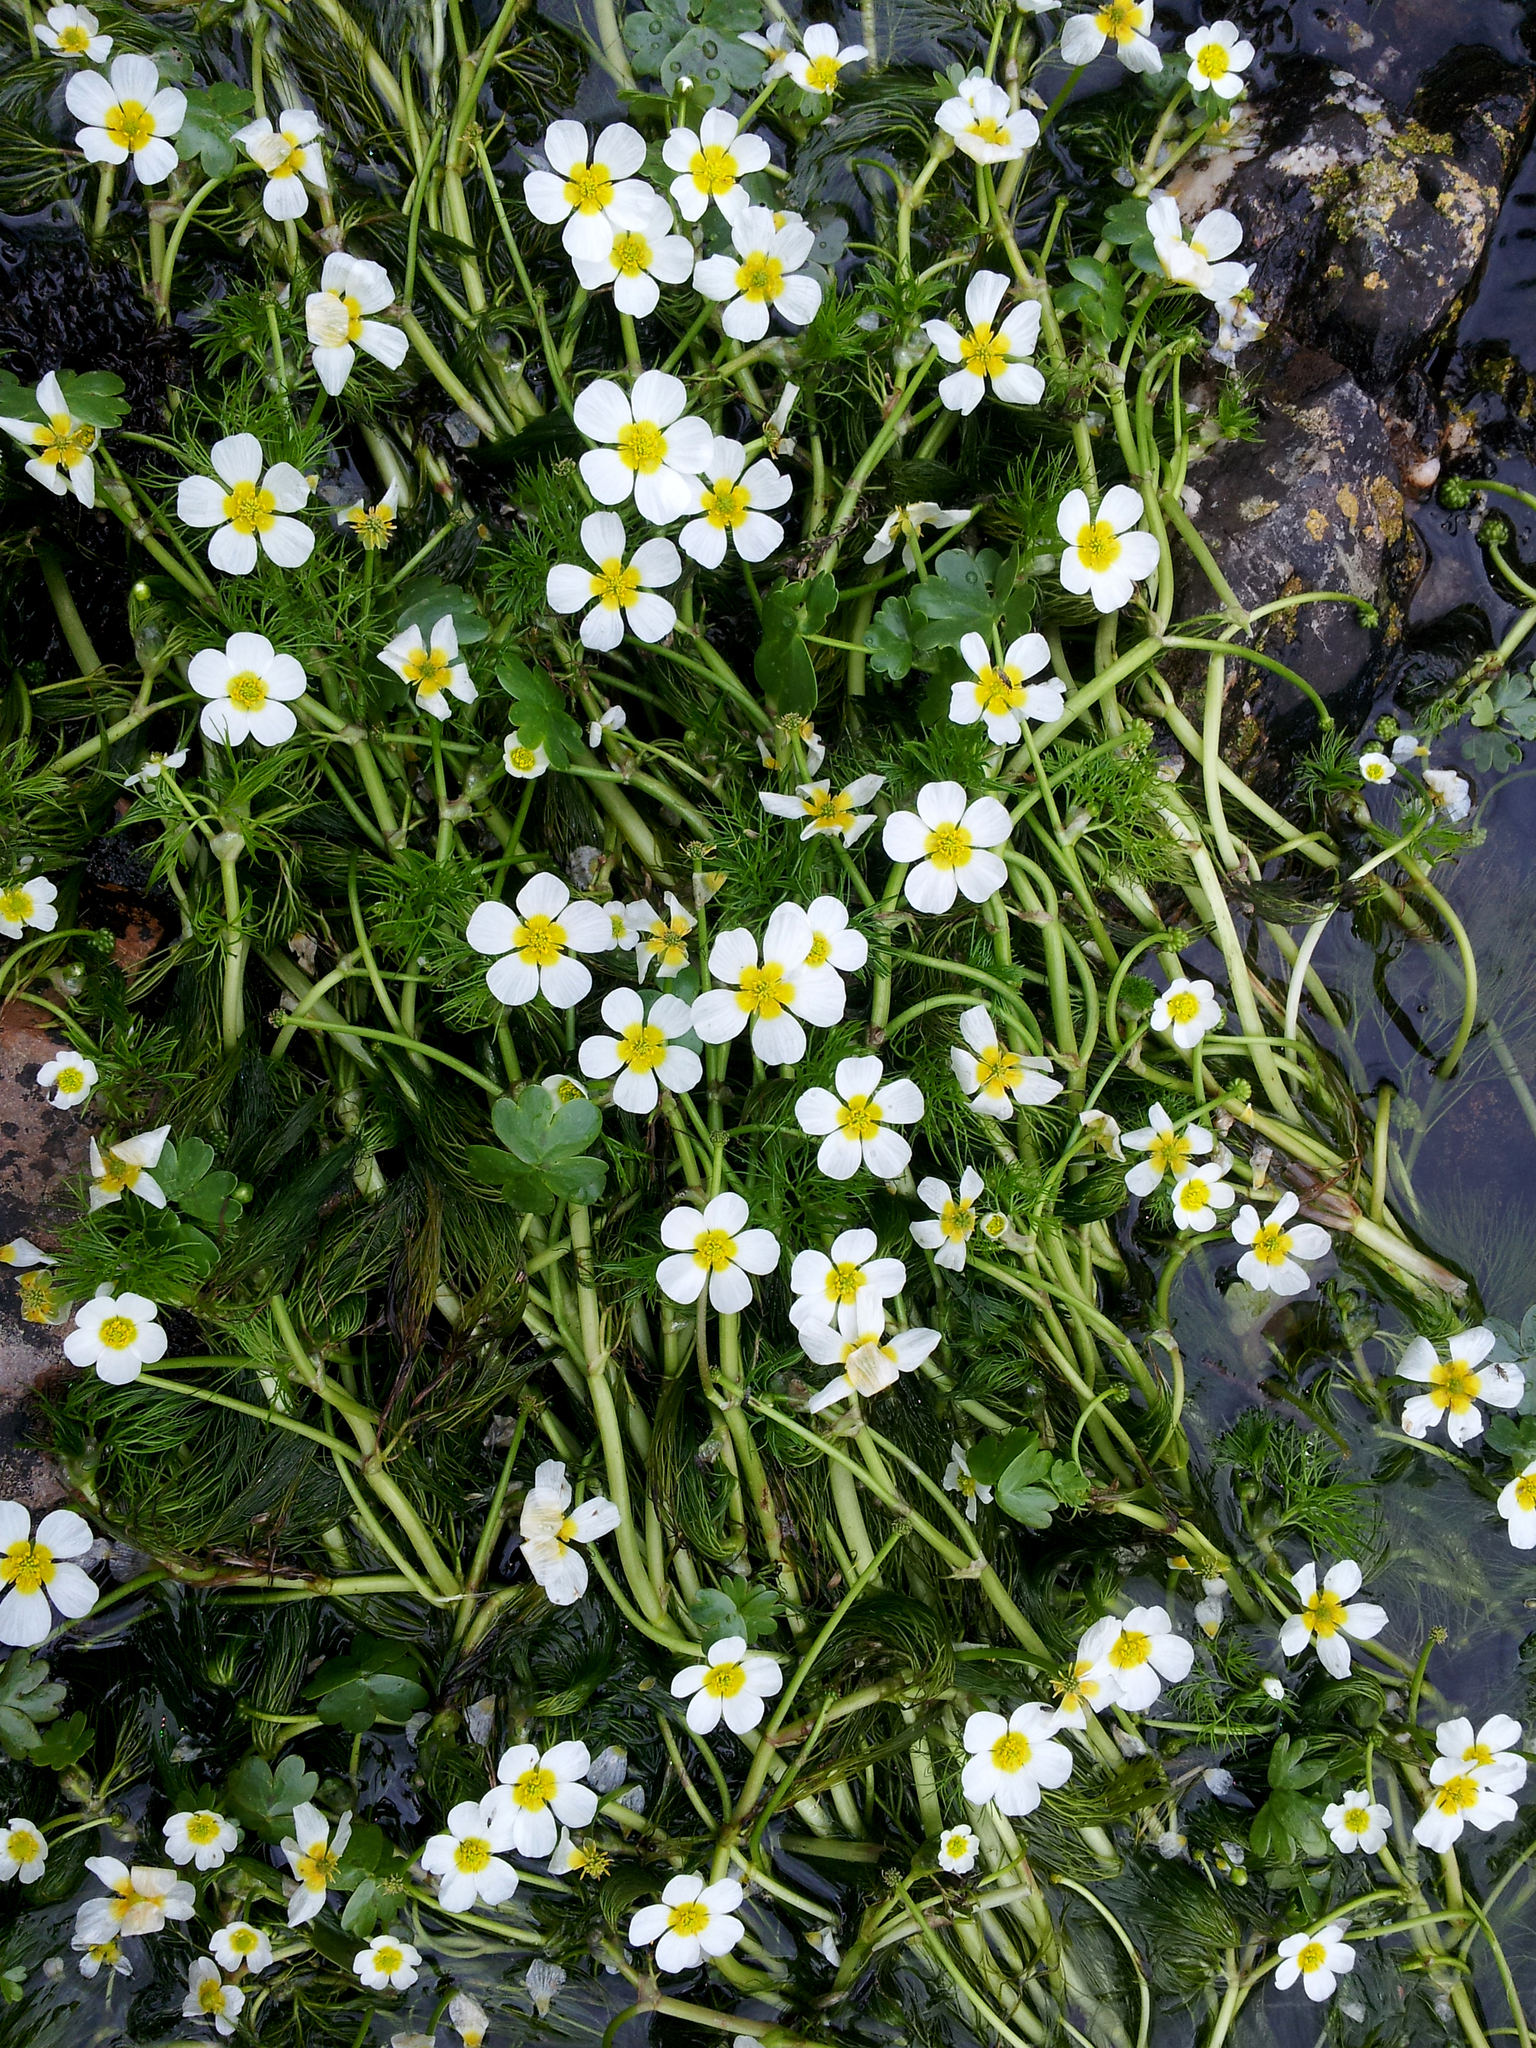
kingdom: Plantae
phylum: Tracheophyta
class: Magnoliopsida
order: Ranunculales
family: Ranunculaceae
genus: Ranunculus
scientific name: Ranunculus aquatilis
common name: Common water-crowfoot
